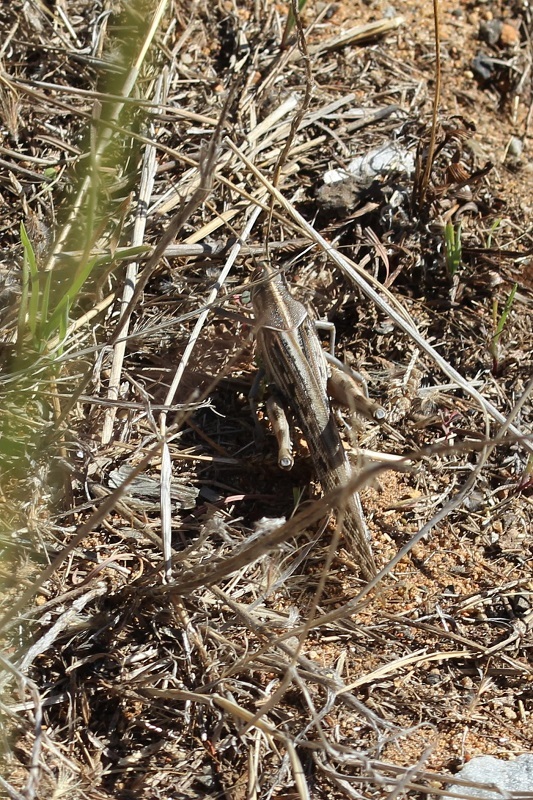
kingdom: Animalia
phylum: Arthropoda
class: Insecta
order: Orthoptera
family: Acrididae
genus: Schistocerca
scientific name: Schistocerca gregaria
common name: Desert locust
